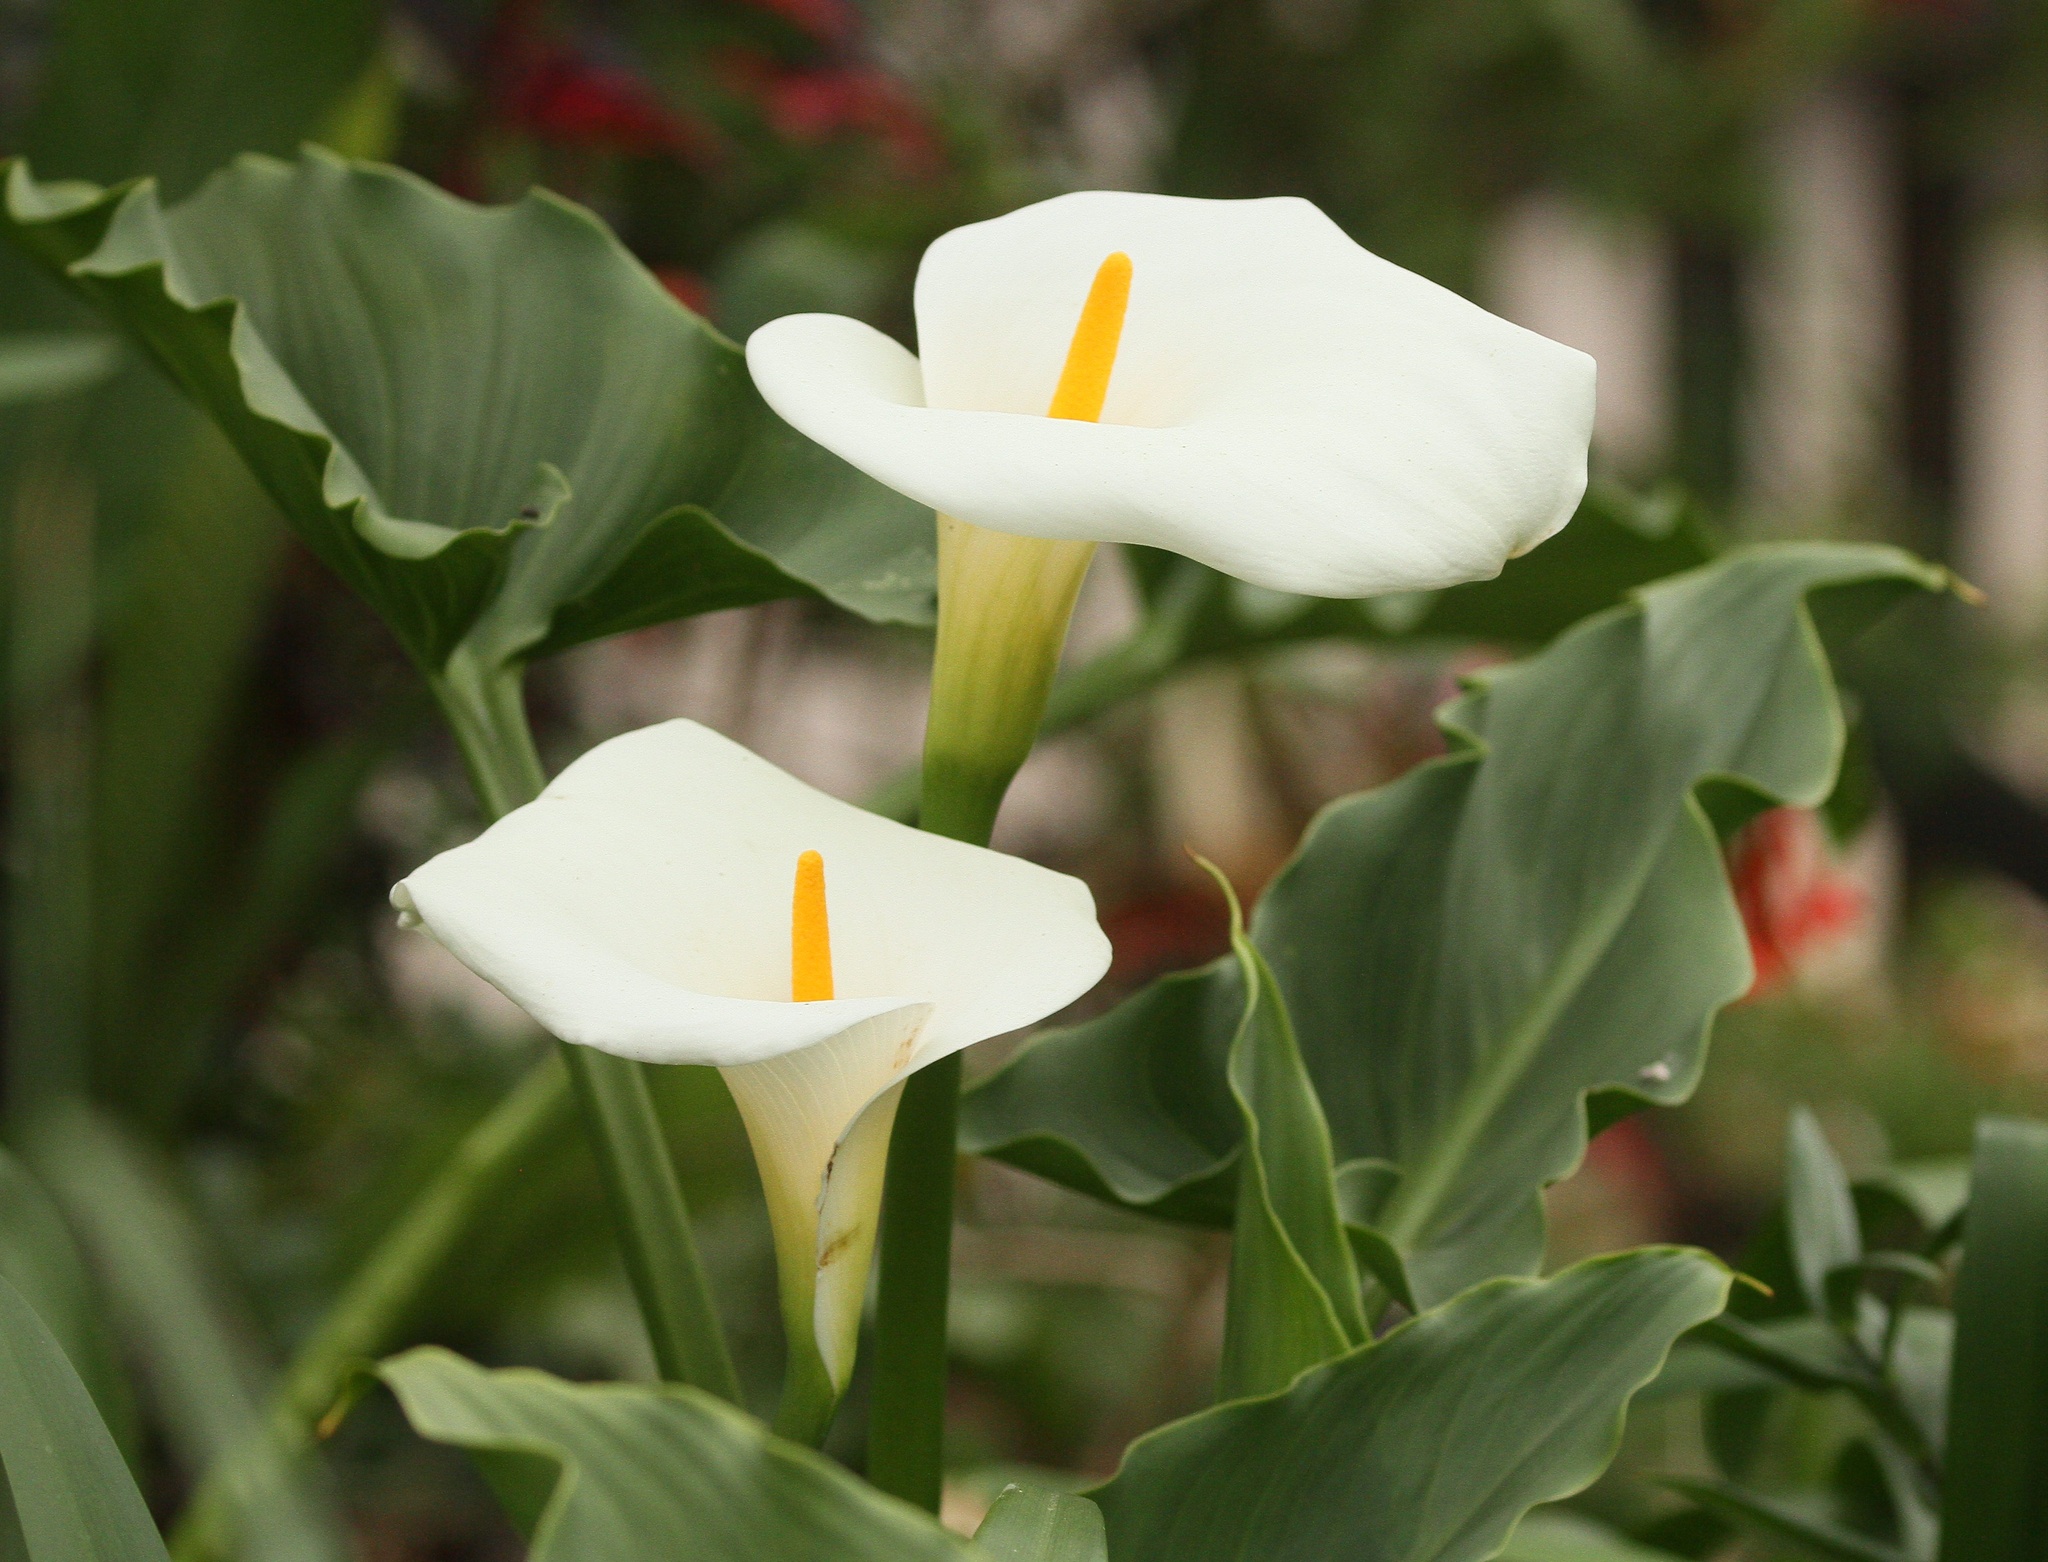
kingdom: Plantae
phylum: Tracheophyta
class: Liliopsida
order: Alismatales
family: Araceae
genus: Zantedeschia
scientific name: Zantedeschia aethiopica
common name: Altar-lily
